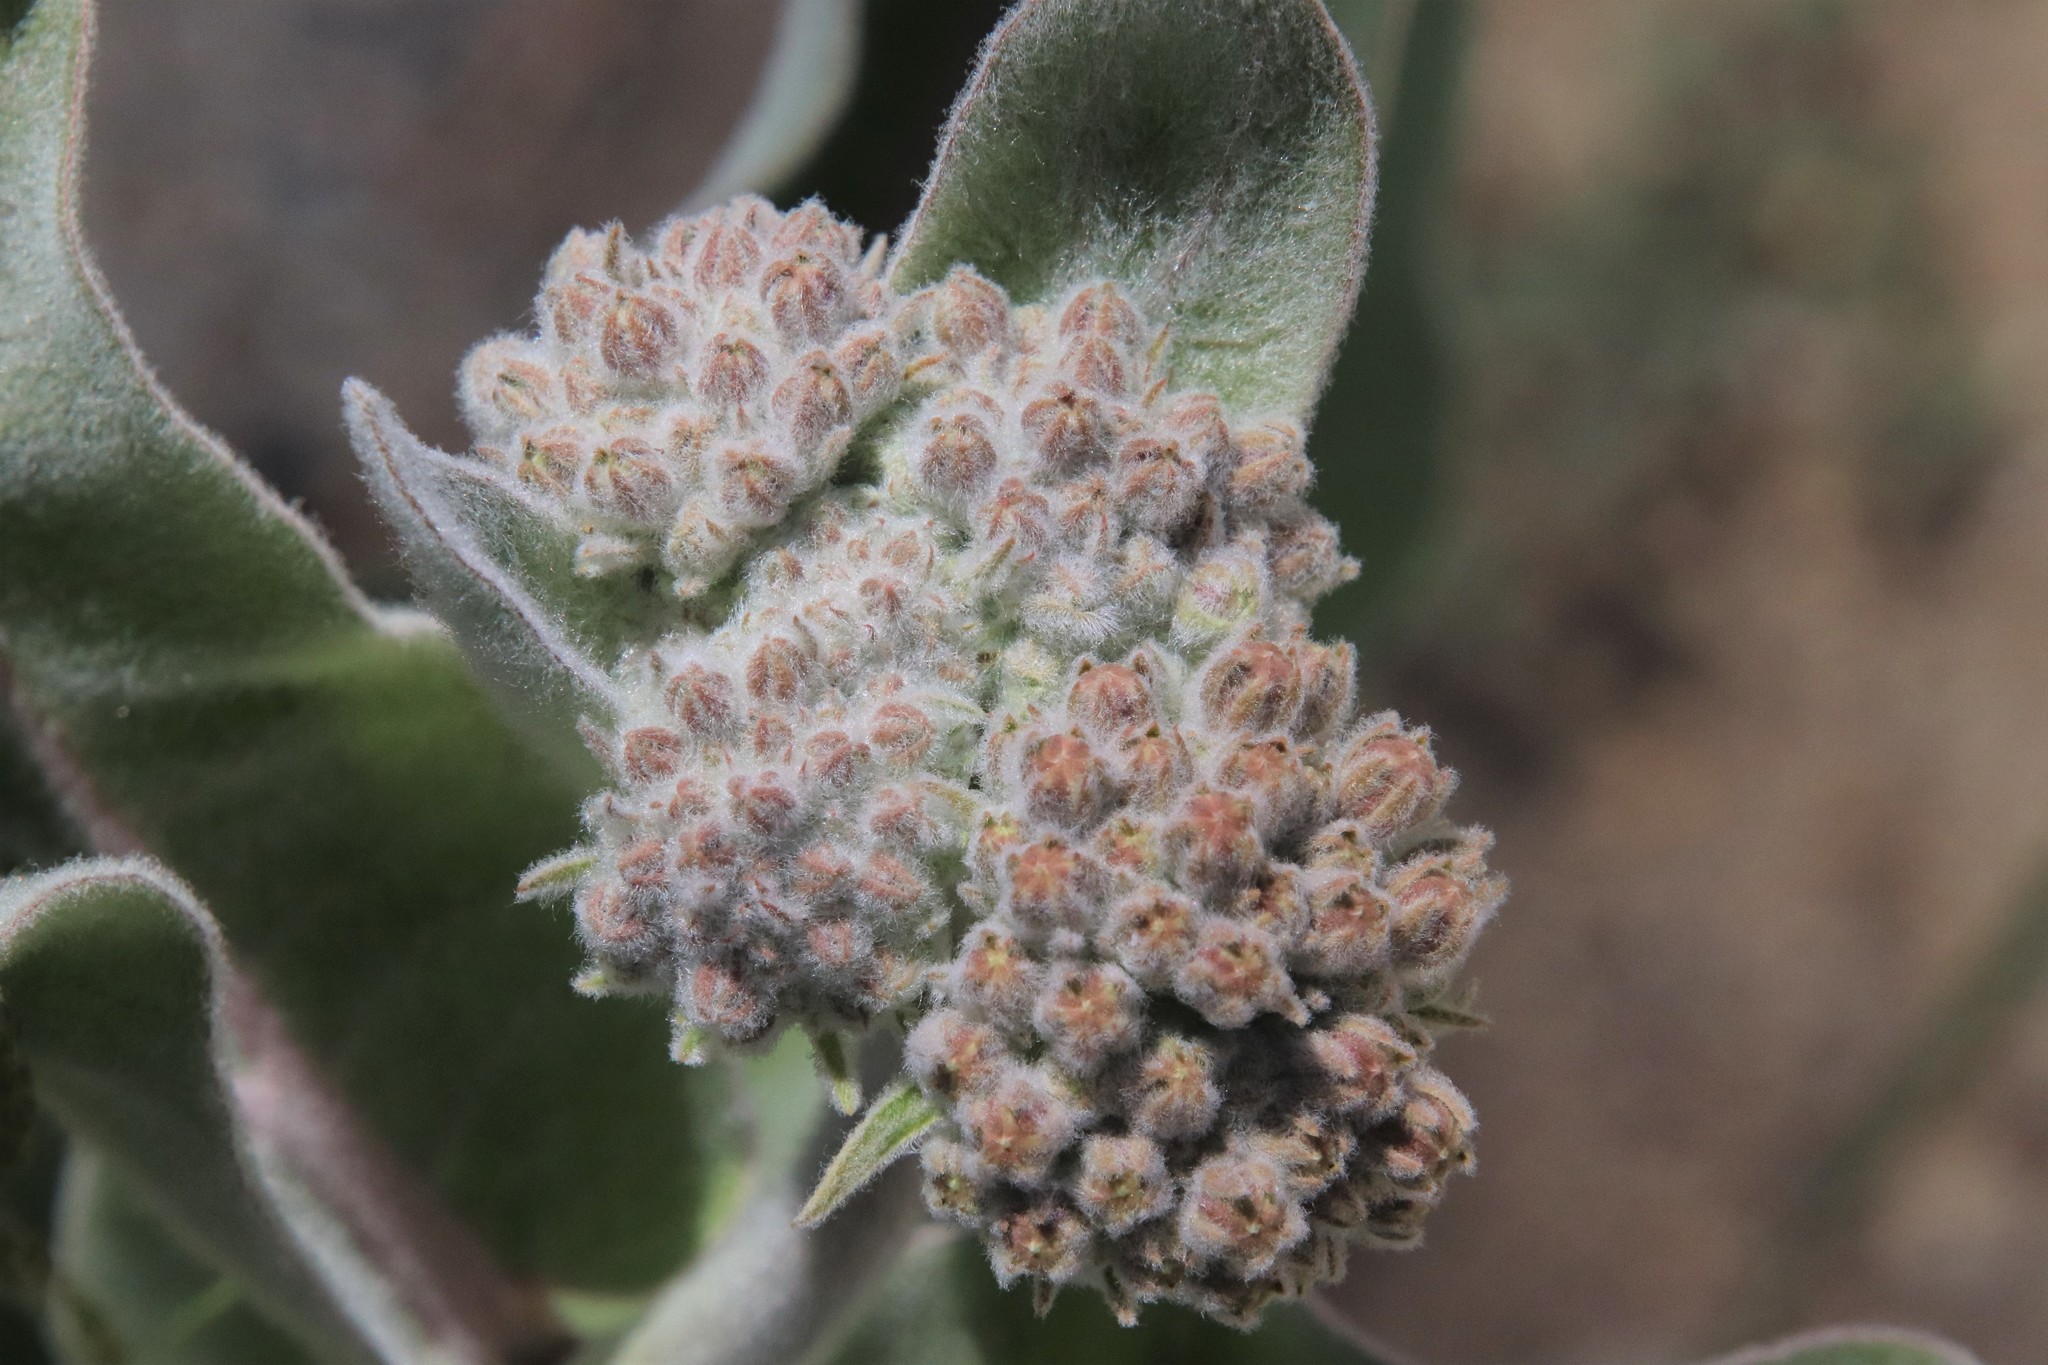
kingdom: Plantae
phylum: Tracheophyta
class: Magnoliopsida
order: Gentianales
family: Apocynaceae
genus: Asclepias
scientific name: Asclepias eriocarpa
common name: Indian milkweed
